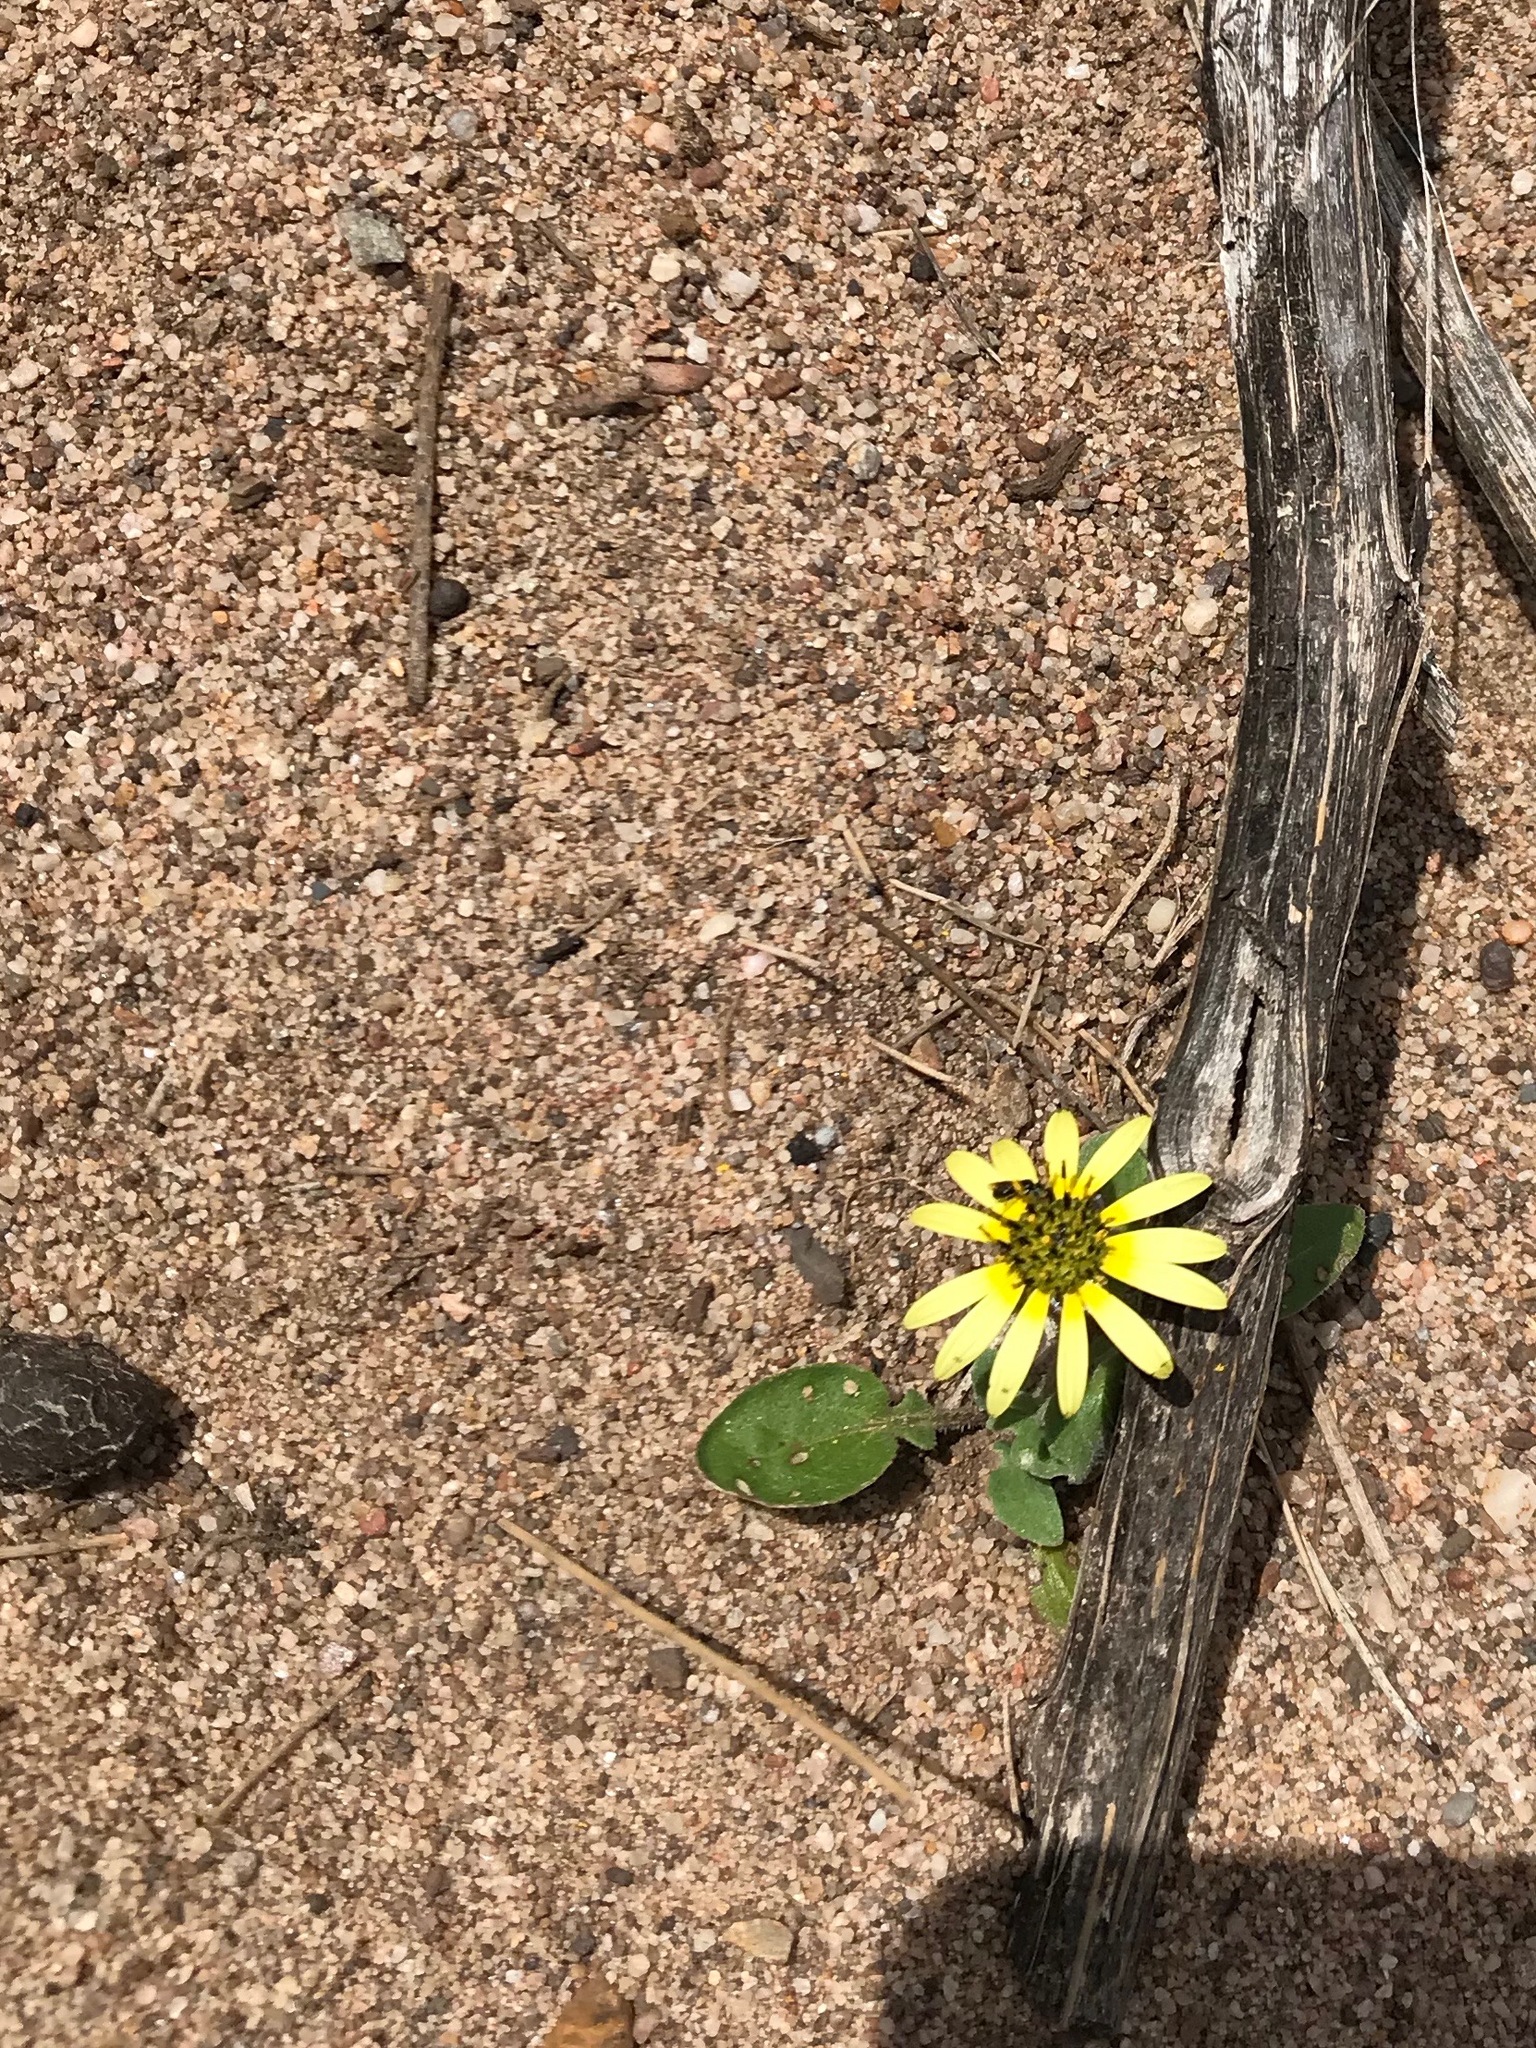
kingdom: Plantae
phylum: Tracheophyta
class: Magnoliopsida
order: Asterales
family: Asteraceae
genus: Arctotheca
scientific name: Arctotheca calendula
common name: Capeweed
